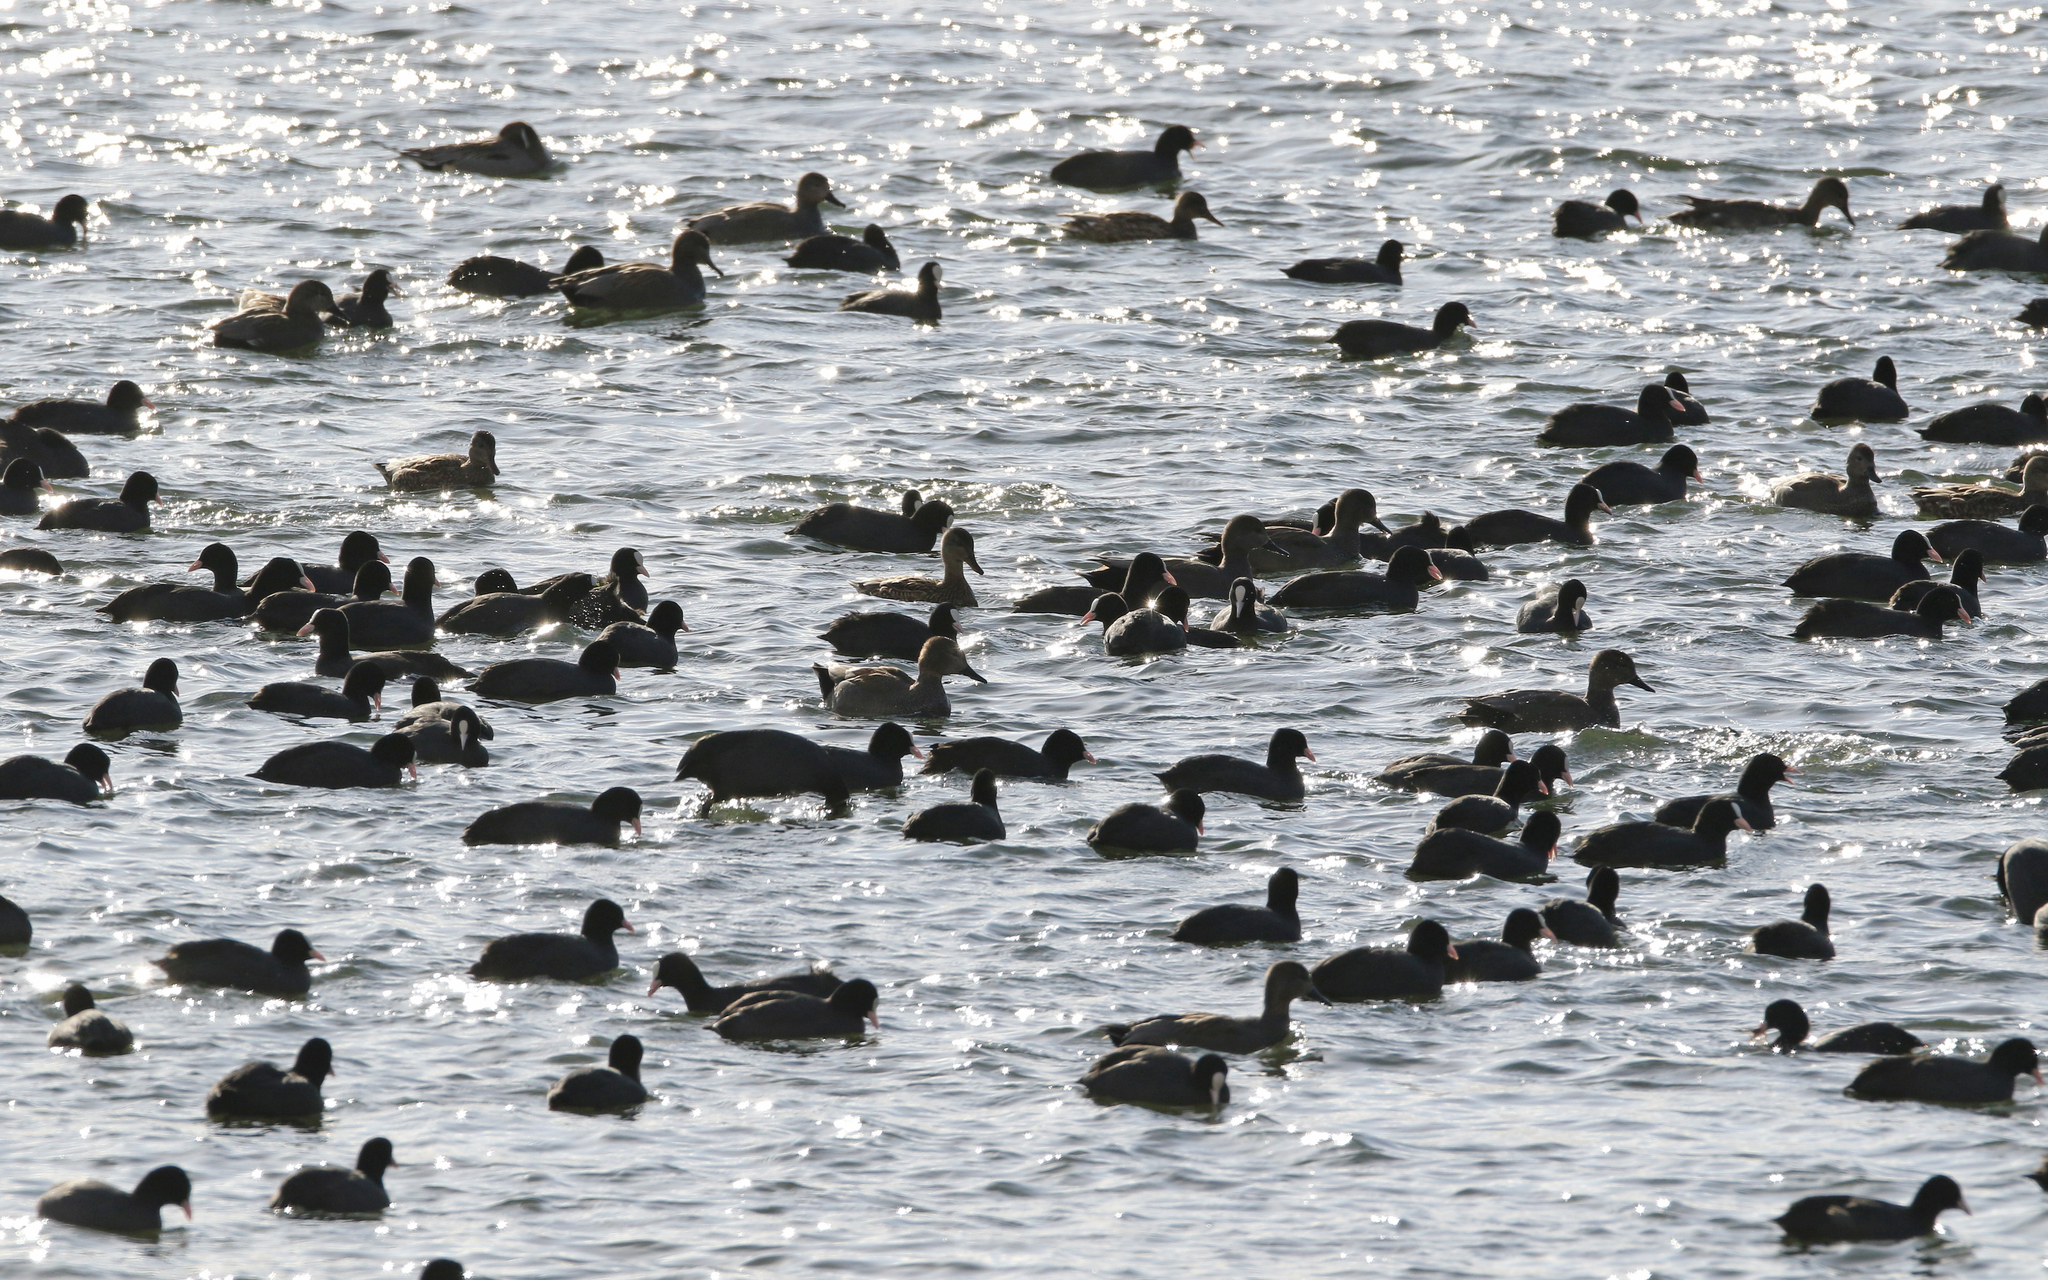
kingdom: Animalia
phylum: Chordata
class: Aves
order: Gruiformes
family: Rallidae
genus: Fulica
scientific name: Fulica atra
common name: Eurasian coot
